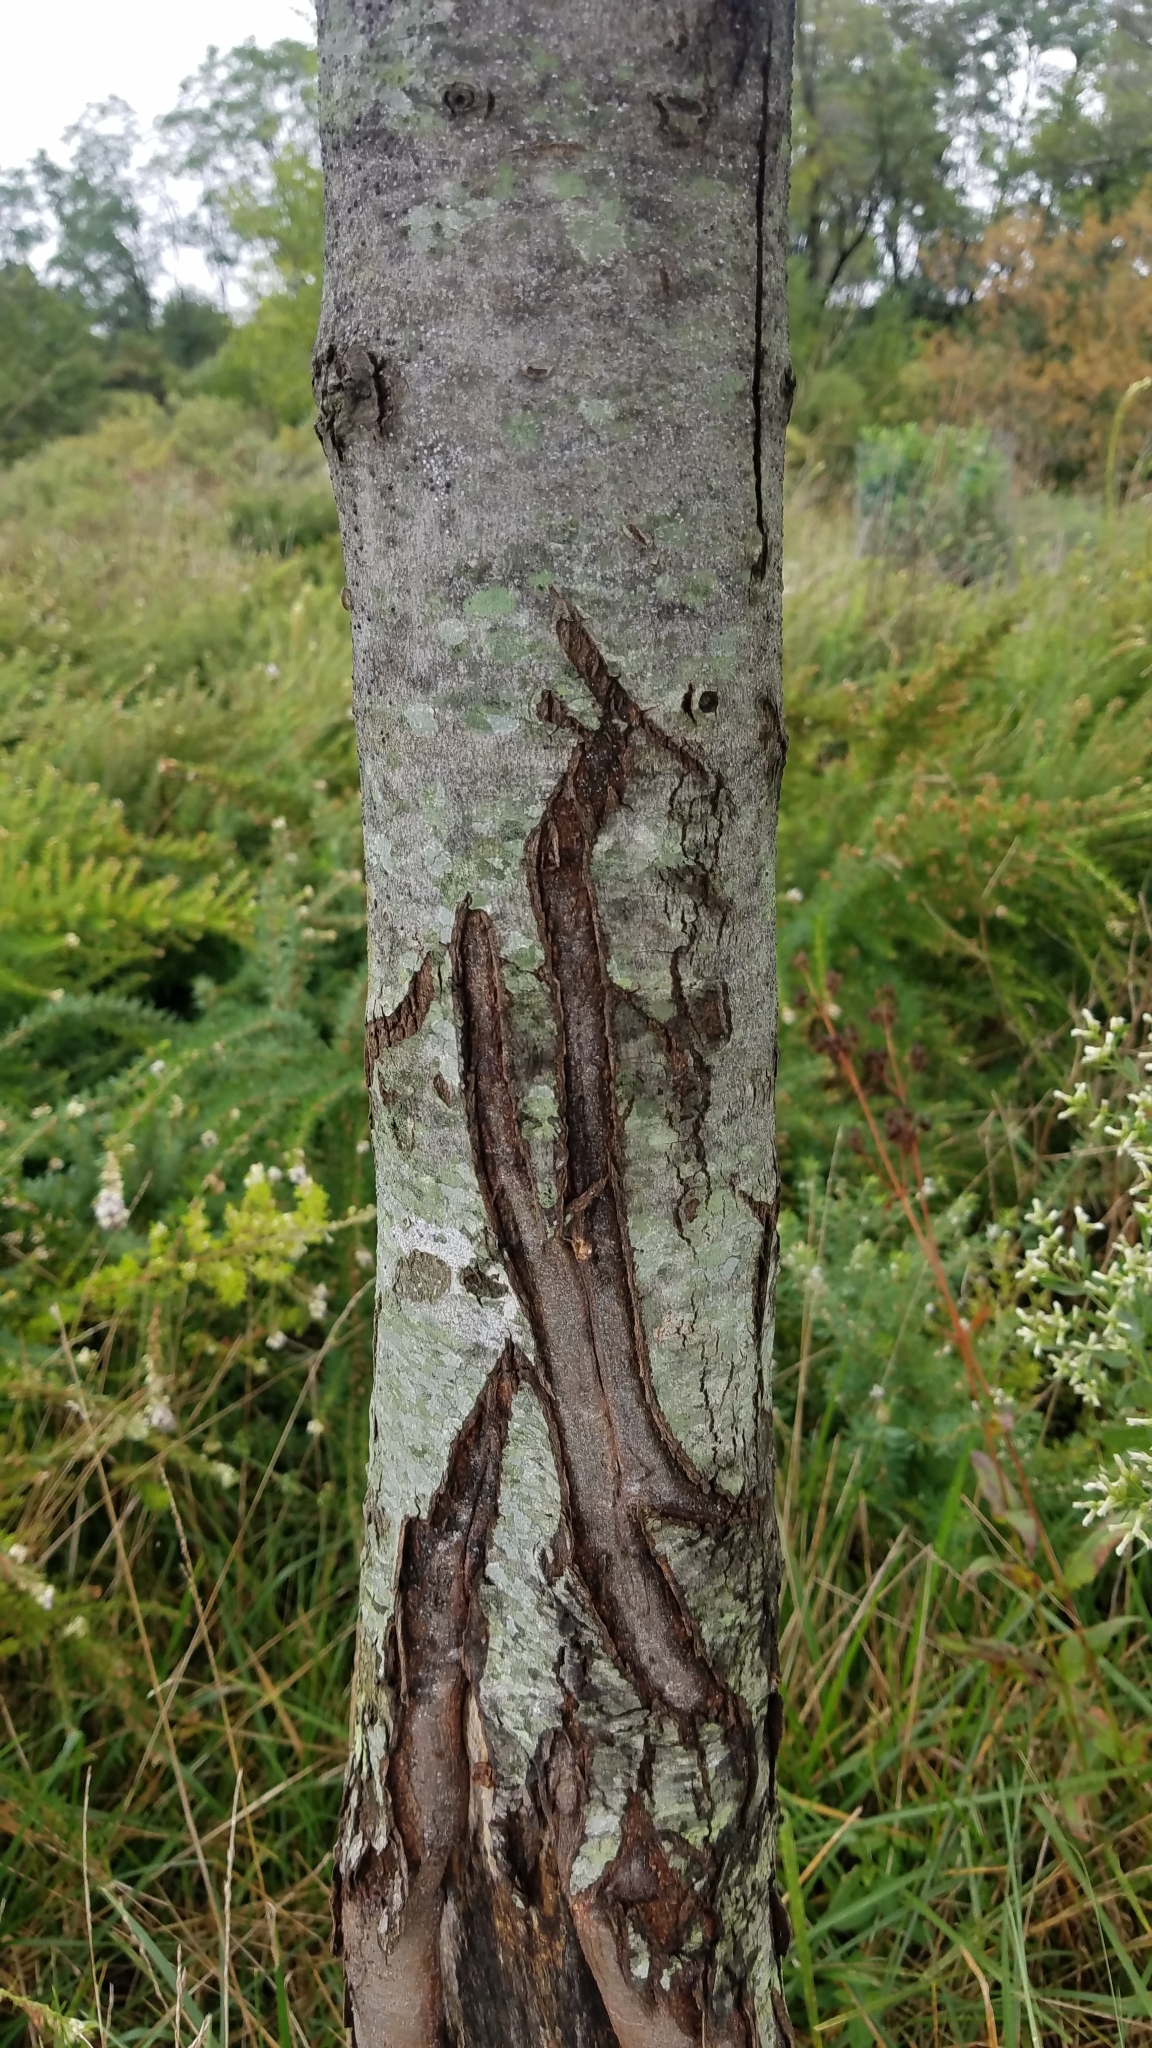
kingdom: Plantae
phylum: Tracheophyta
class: Magnoliopsida
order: Sapindales
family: Sapindaceae
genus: Acer
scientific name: Acer rubrum
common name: Red maple
